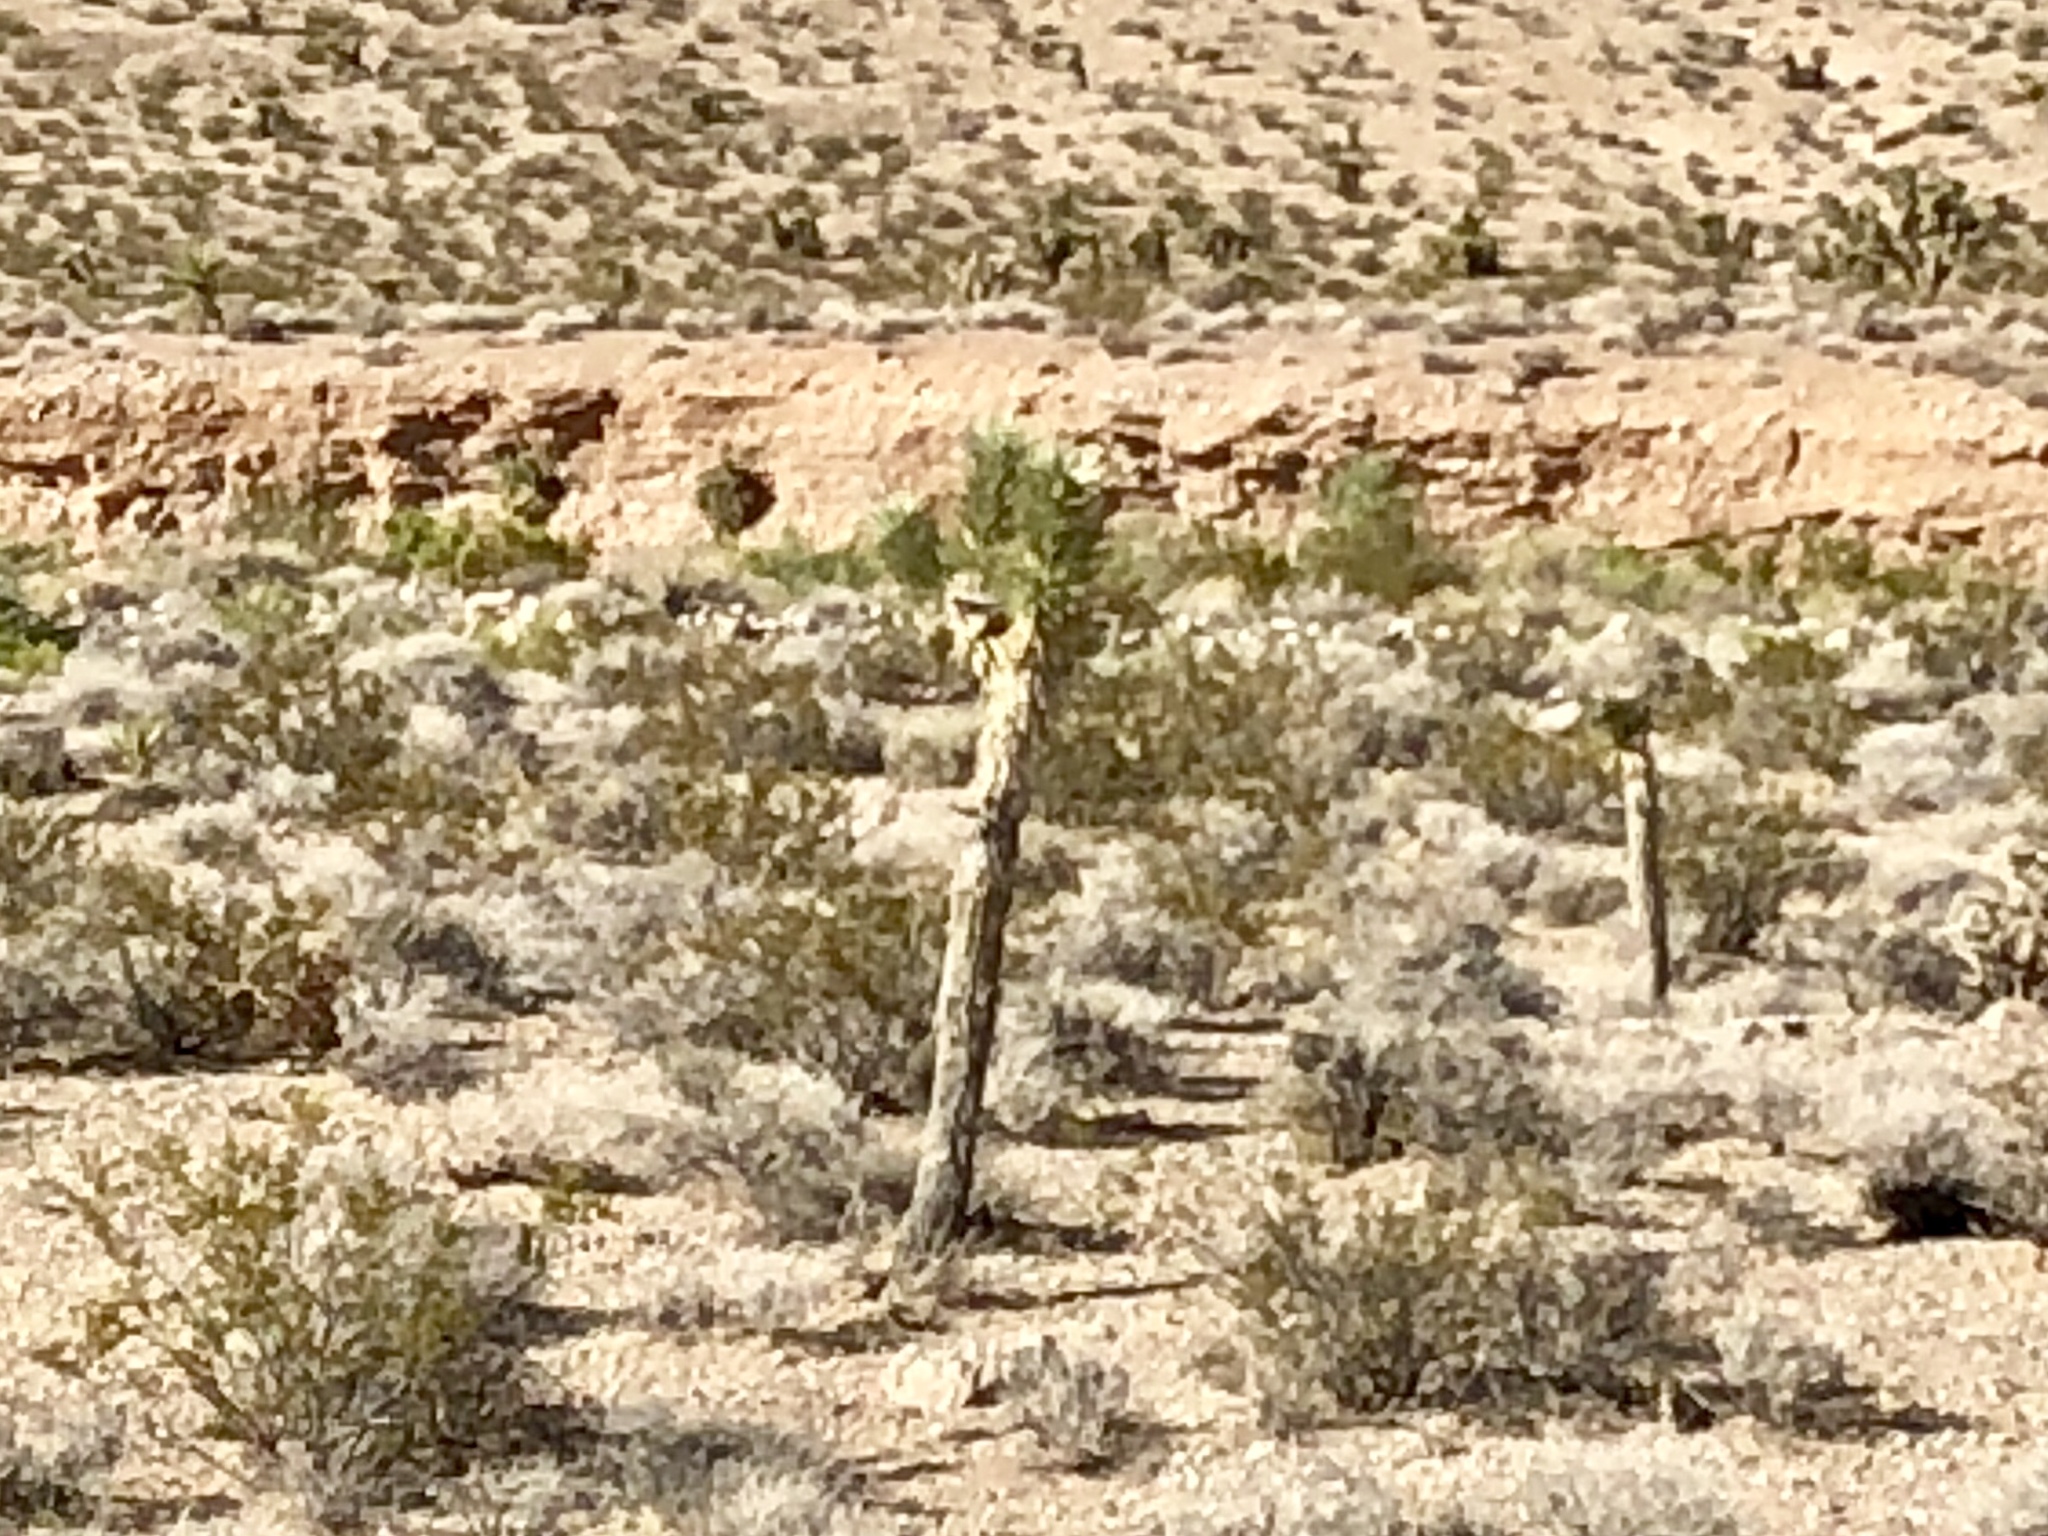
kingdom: Plantae
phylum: Tracheophyta
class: Liliopsida
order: Asparagales
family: Asparagaceae
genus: Yucca
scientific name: Yucca brevifolia
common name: Joshua tree
